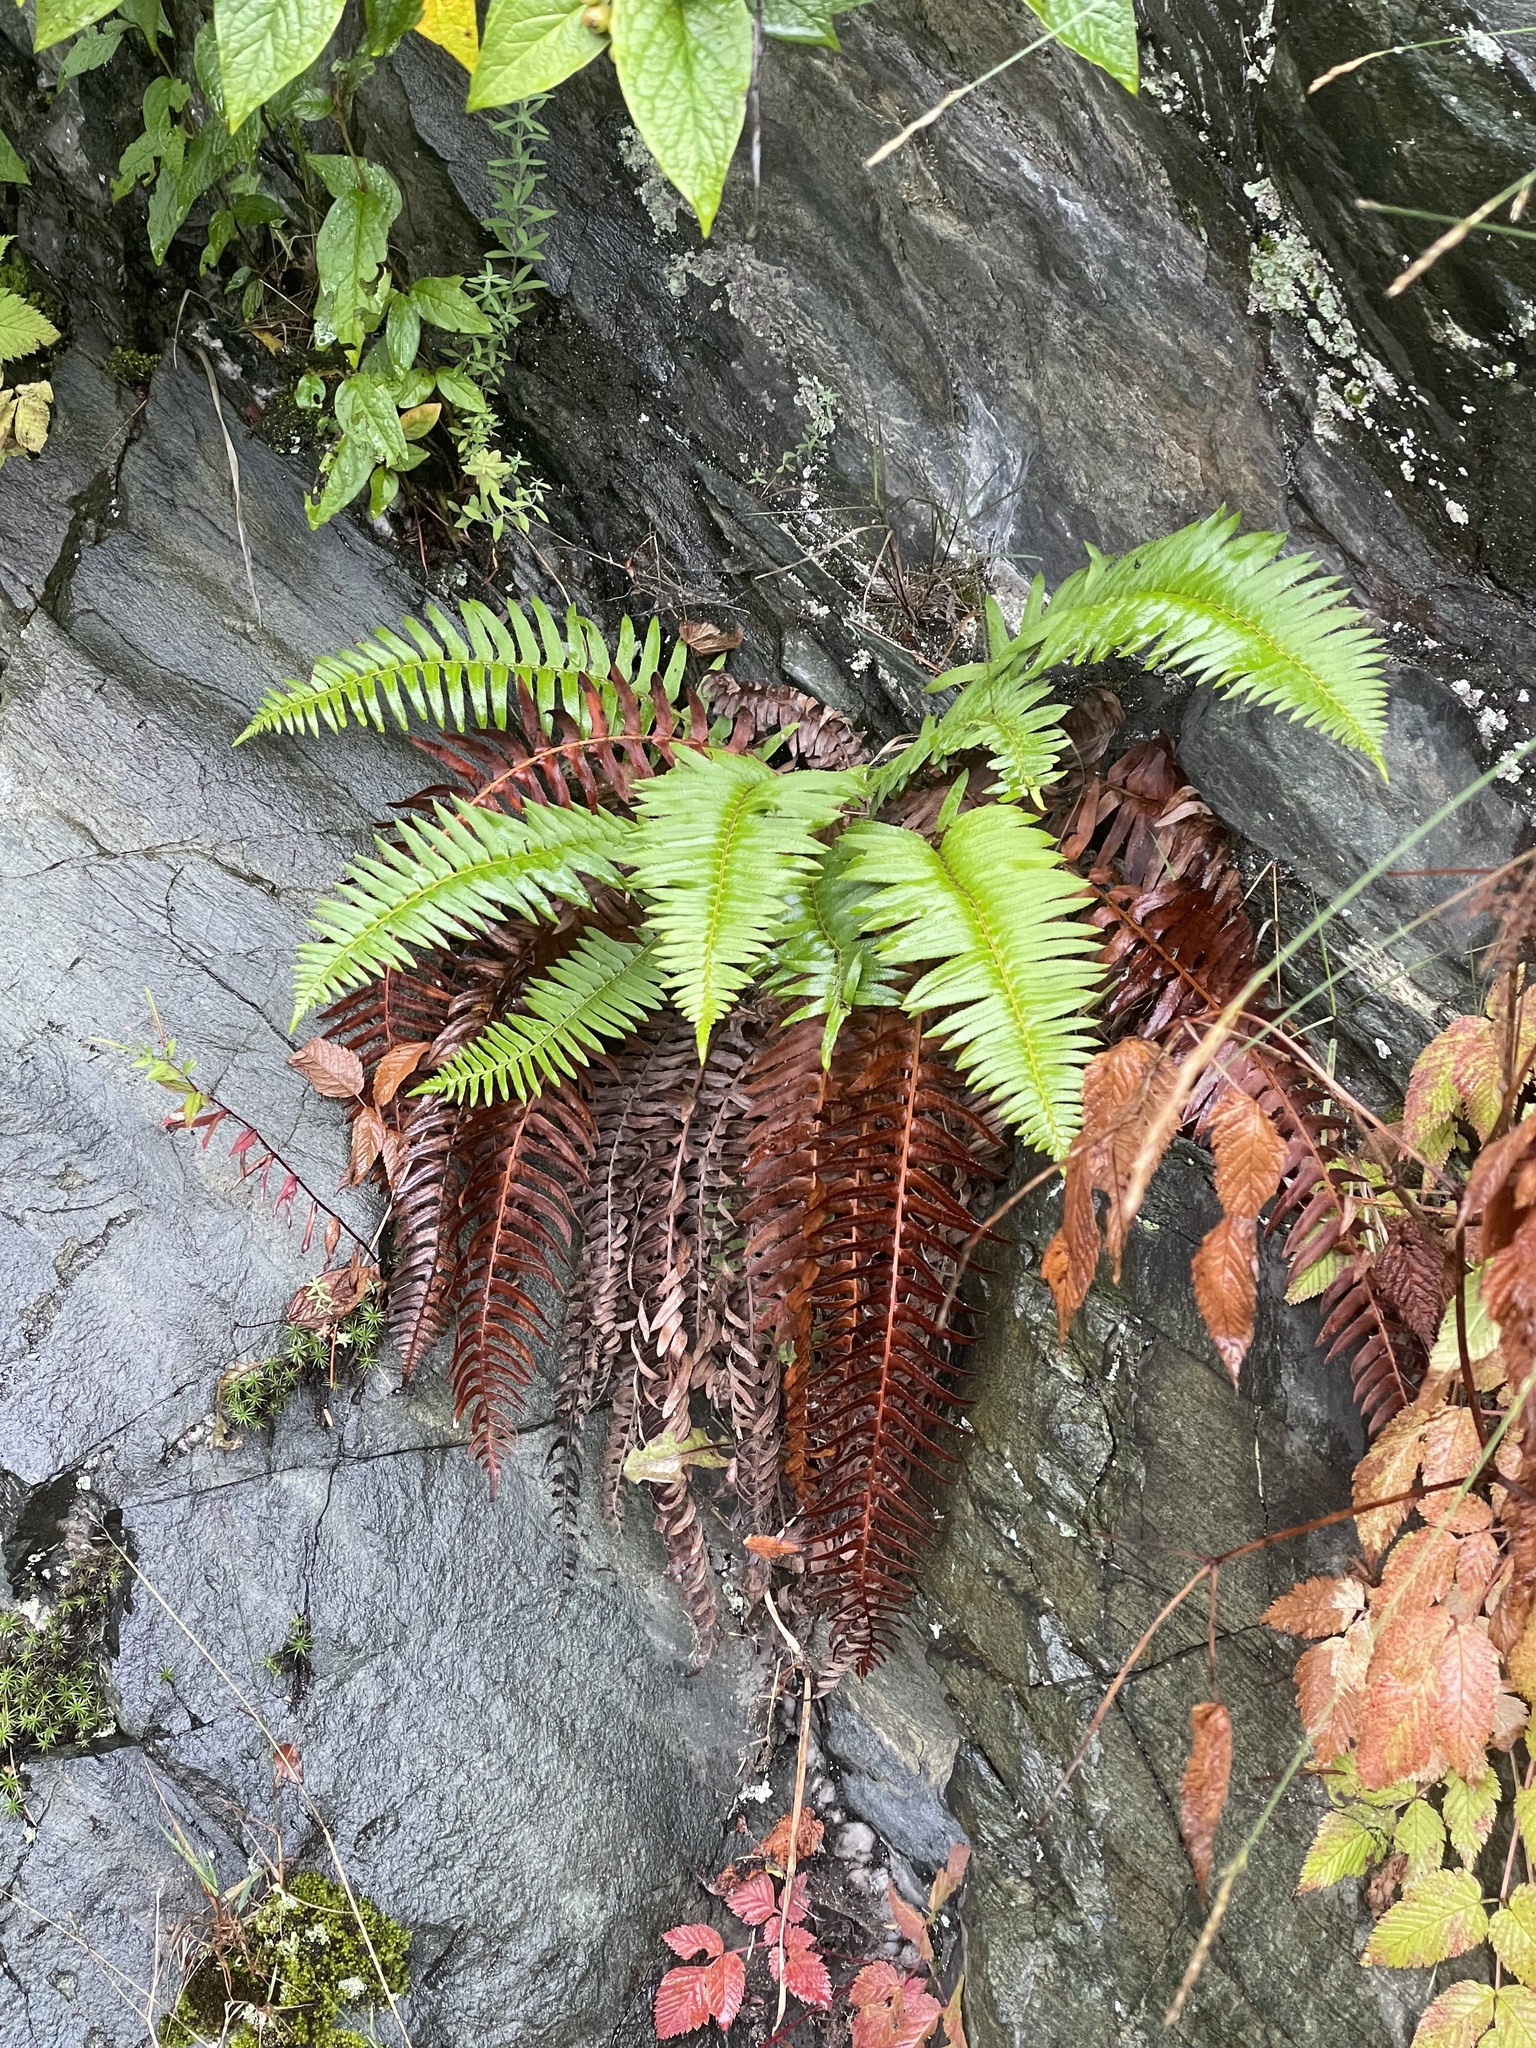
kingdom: Plantae
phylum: Tracheophyta
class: Polypodiopsida
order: Polypodiales
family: Dryopteridaceae
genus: Polystichum
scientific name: Polystichum munitum
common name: Western sword-fern
